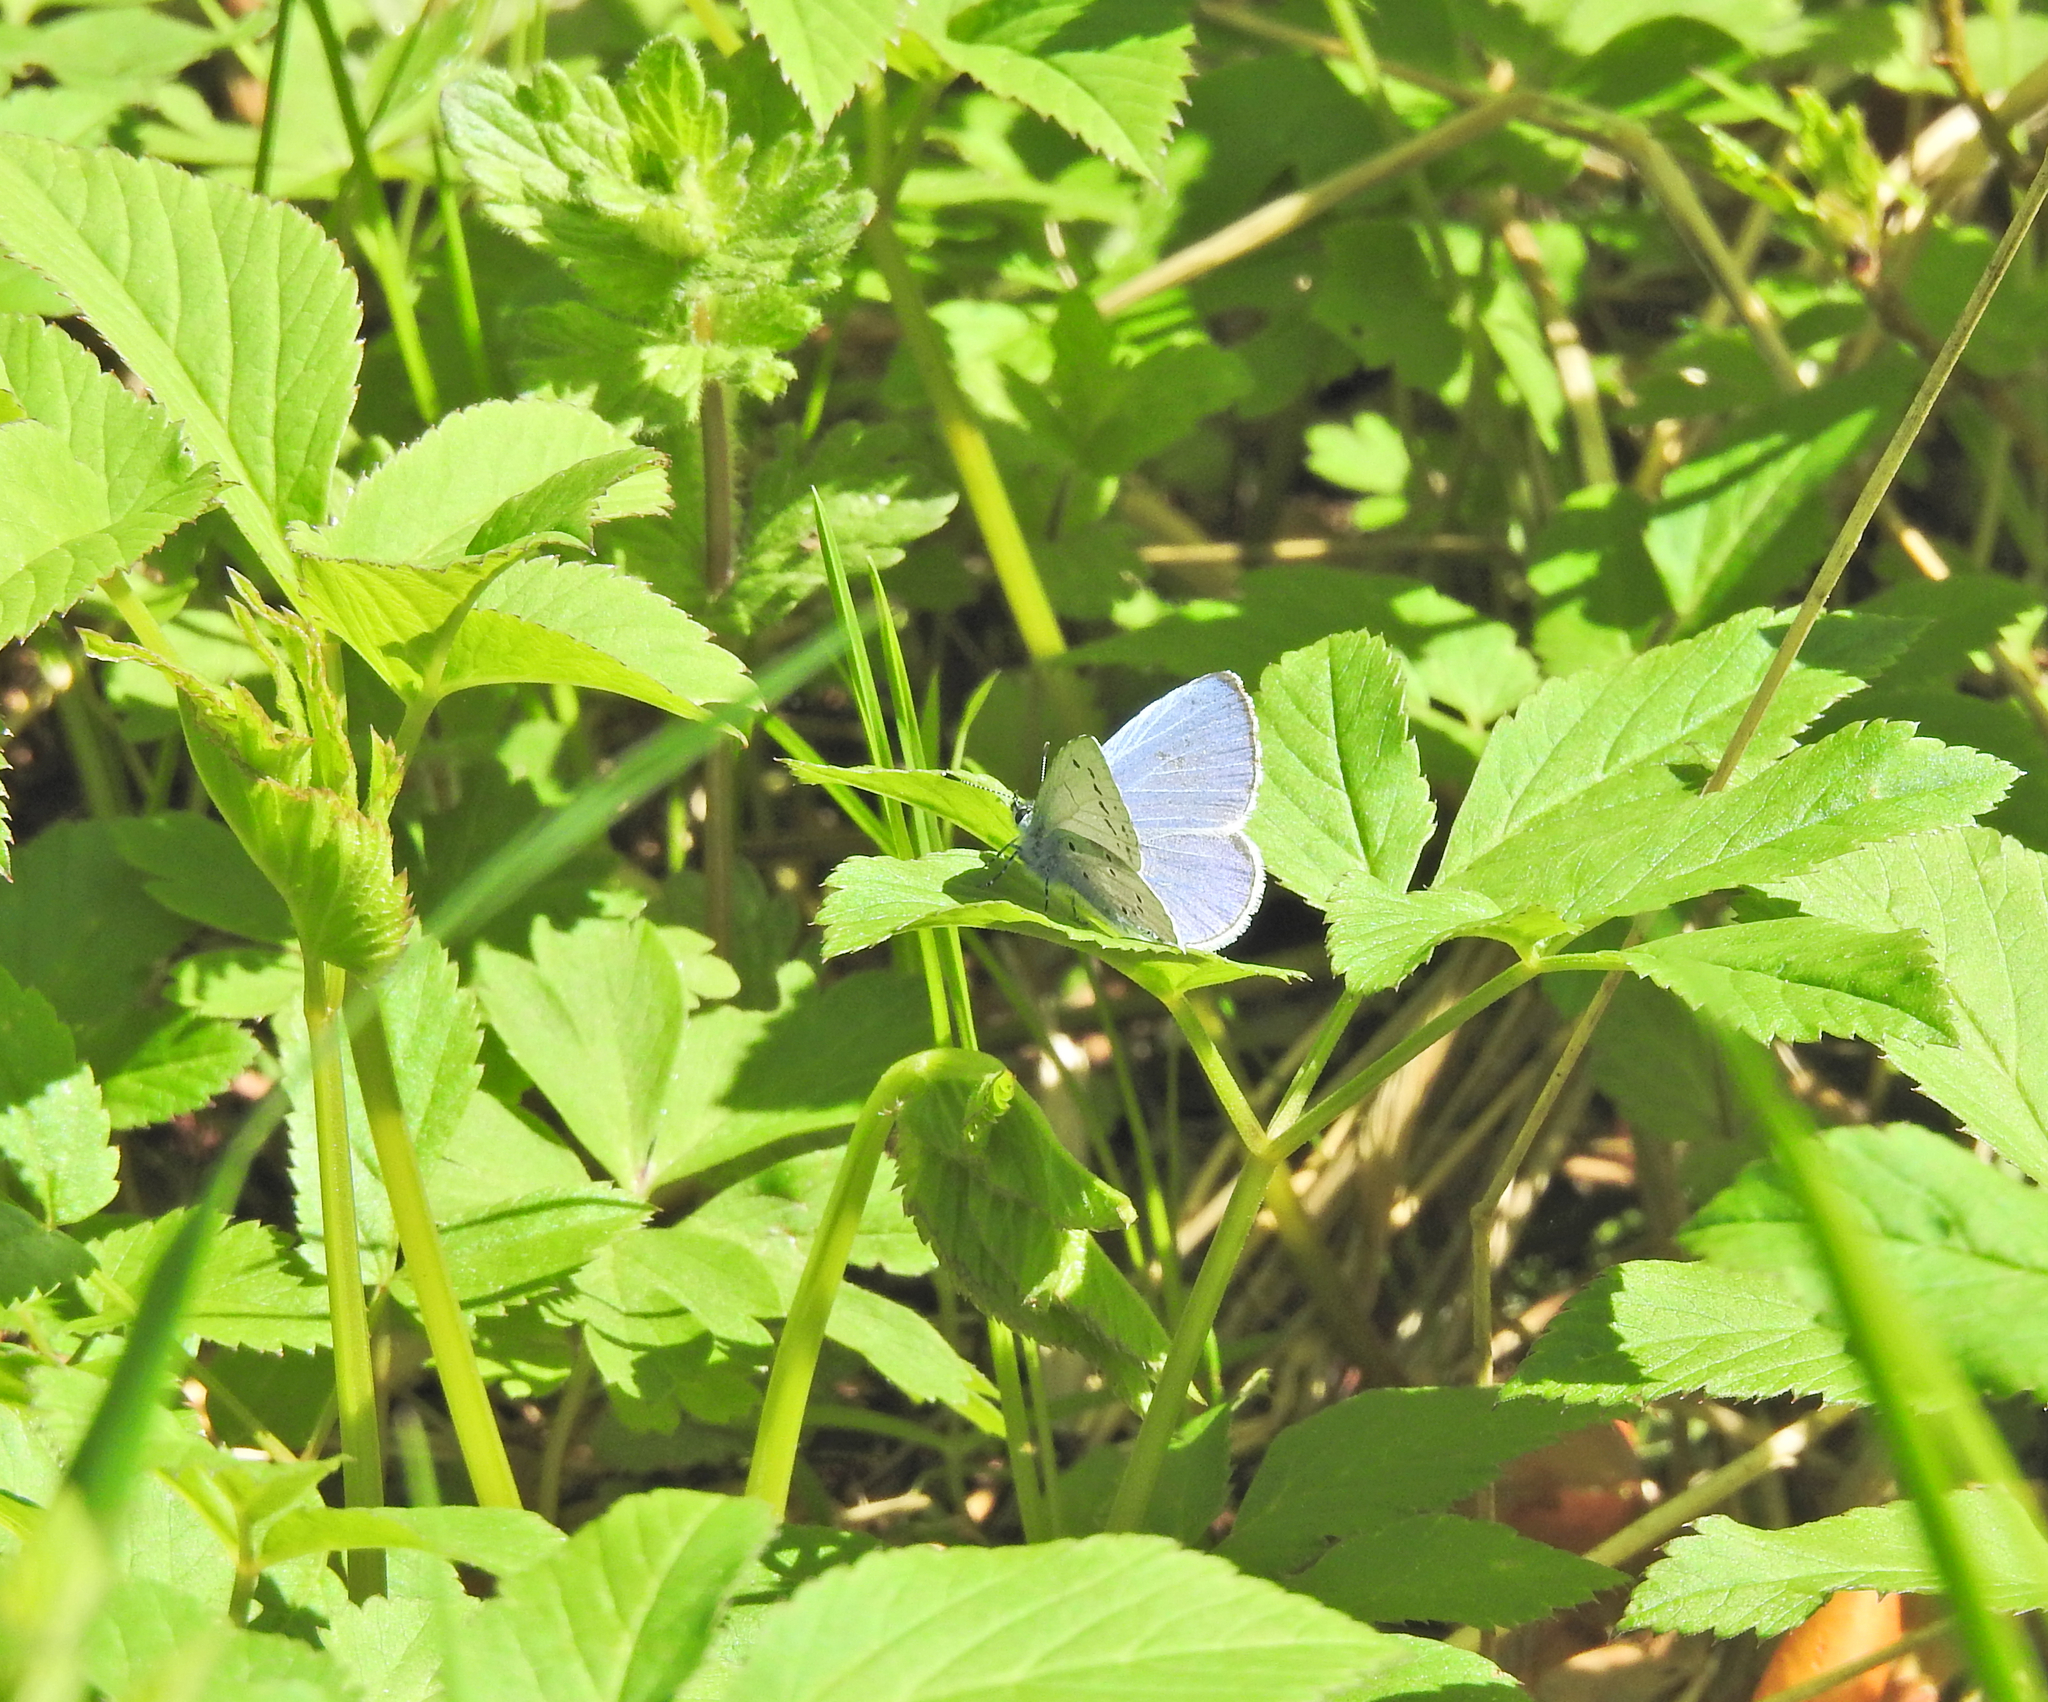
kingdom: Animalia
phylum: Arthropoda
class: Insecta
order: Lepidoptera
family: Lycaenidae
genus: Celastrina
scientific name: Celastrina argiolus
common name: Holly blue
